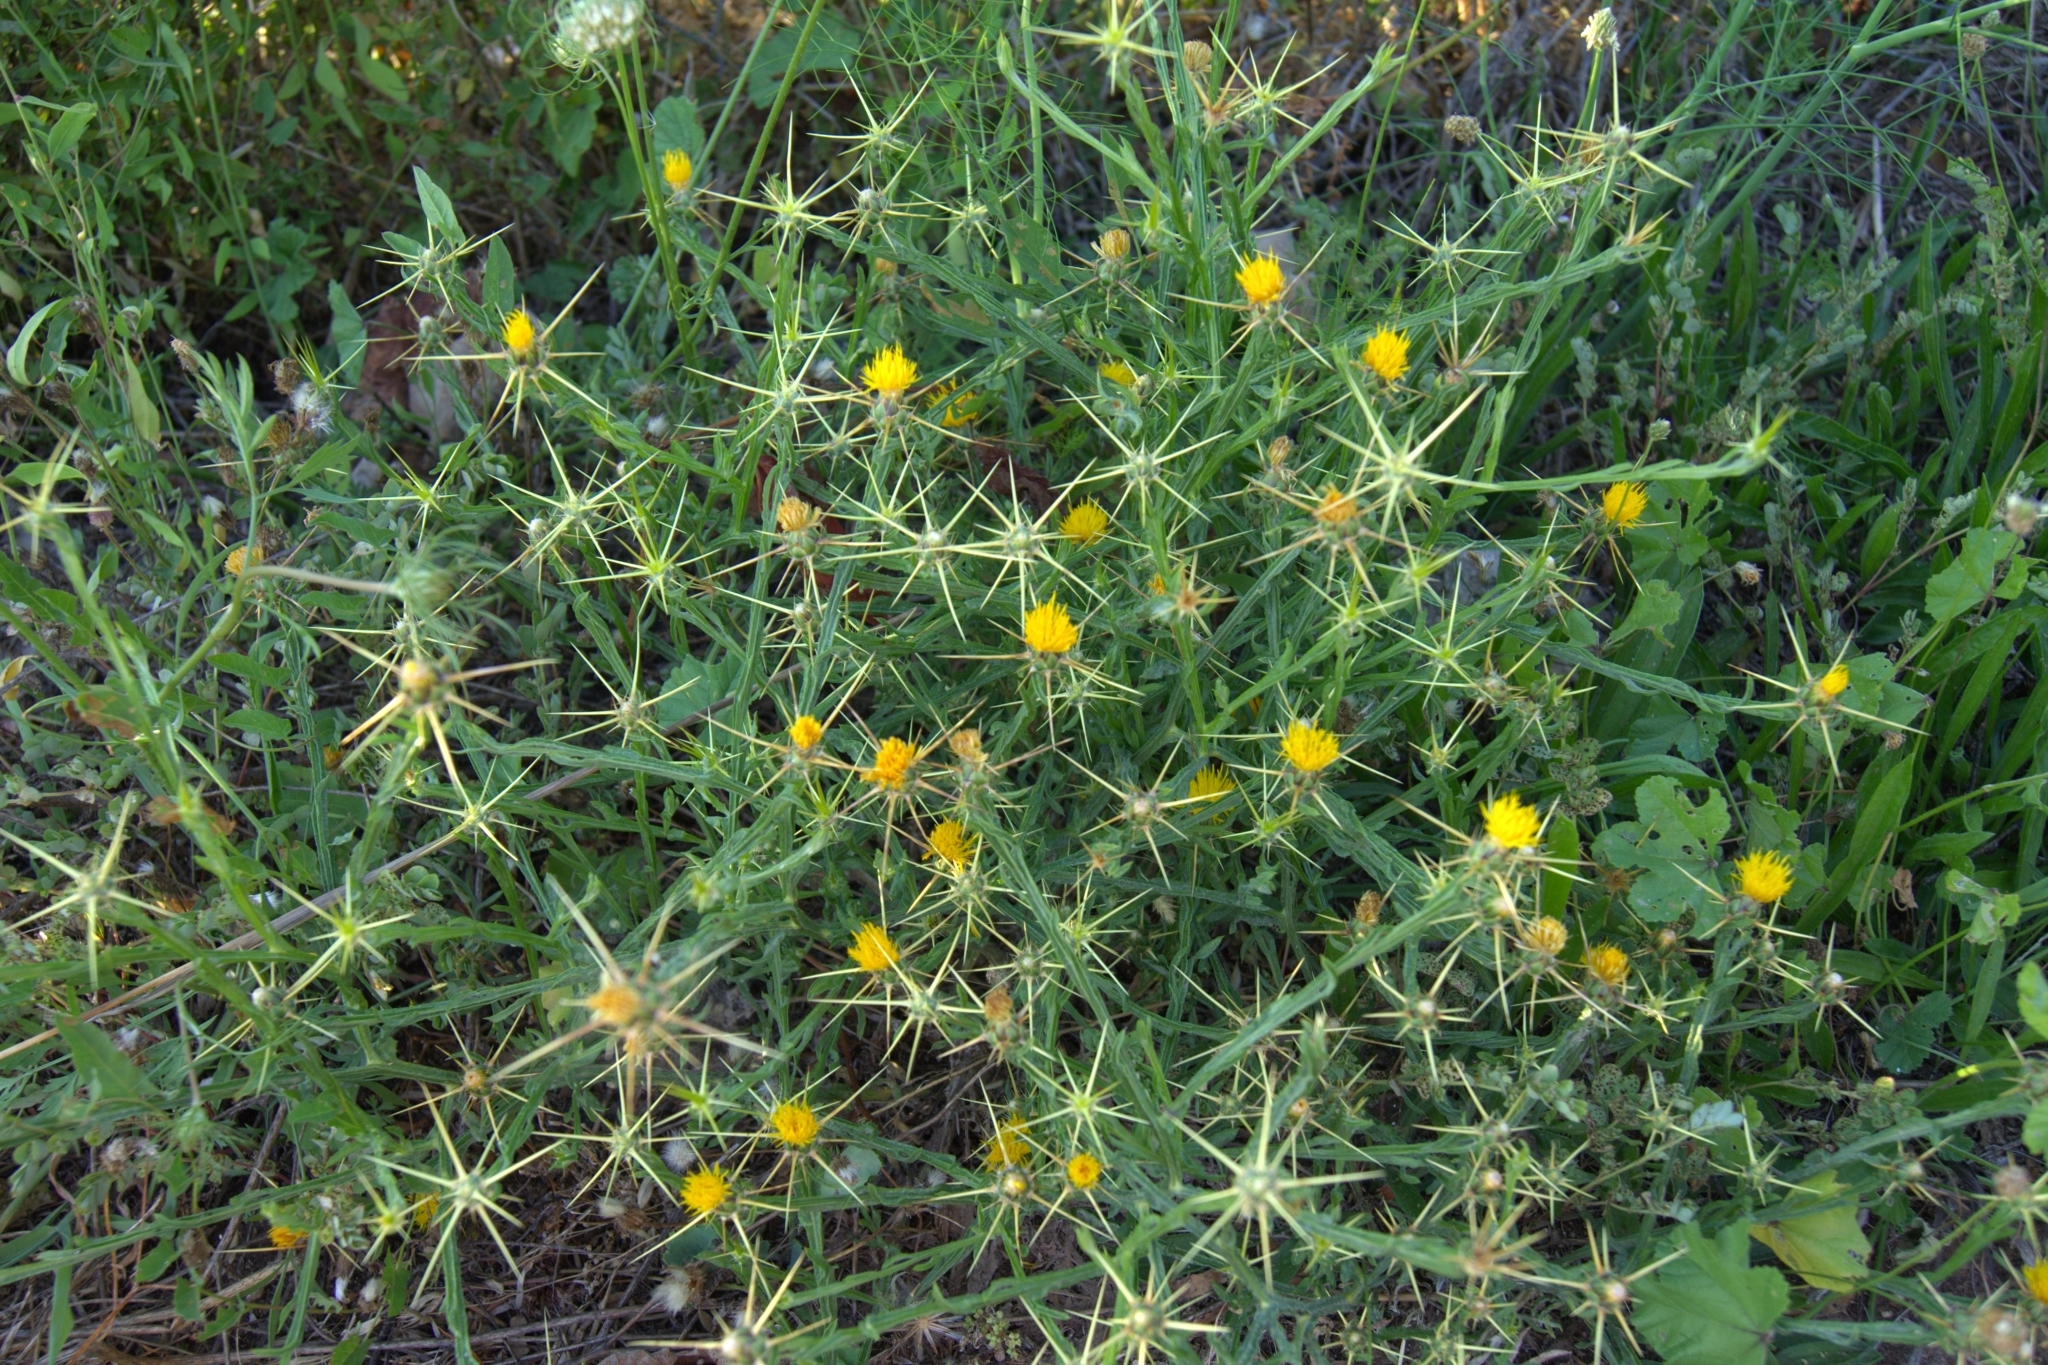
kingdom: Plantae
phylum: Tracheophyta
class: Magnoliopsida
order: Asterales
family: Asteraceae
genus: Centaurea
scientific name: Centaurea solstitialis
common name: Yellow star-thistle
